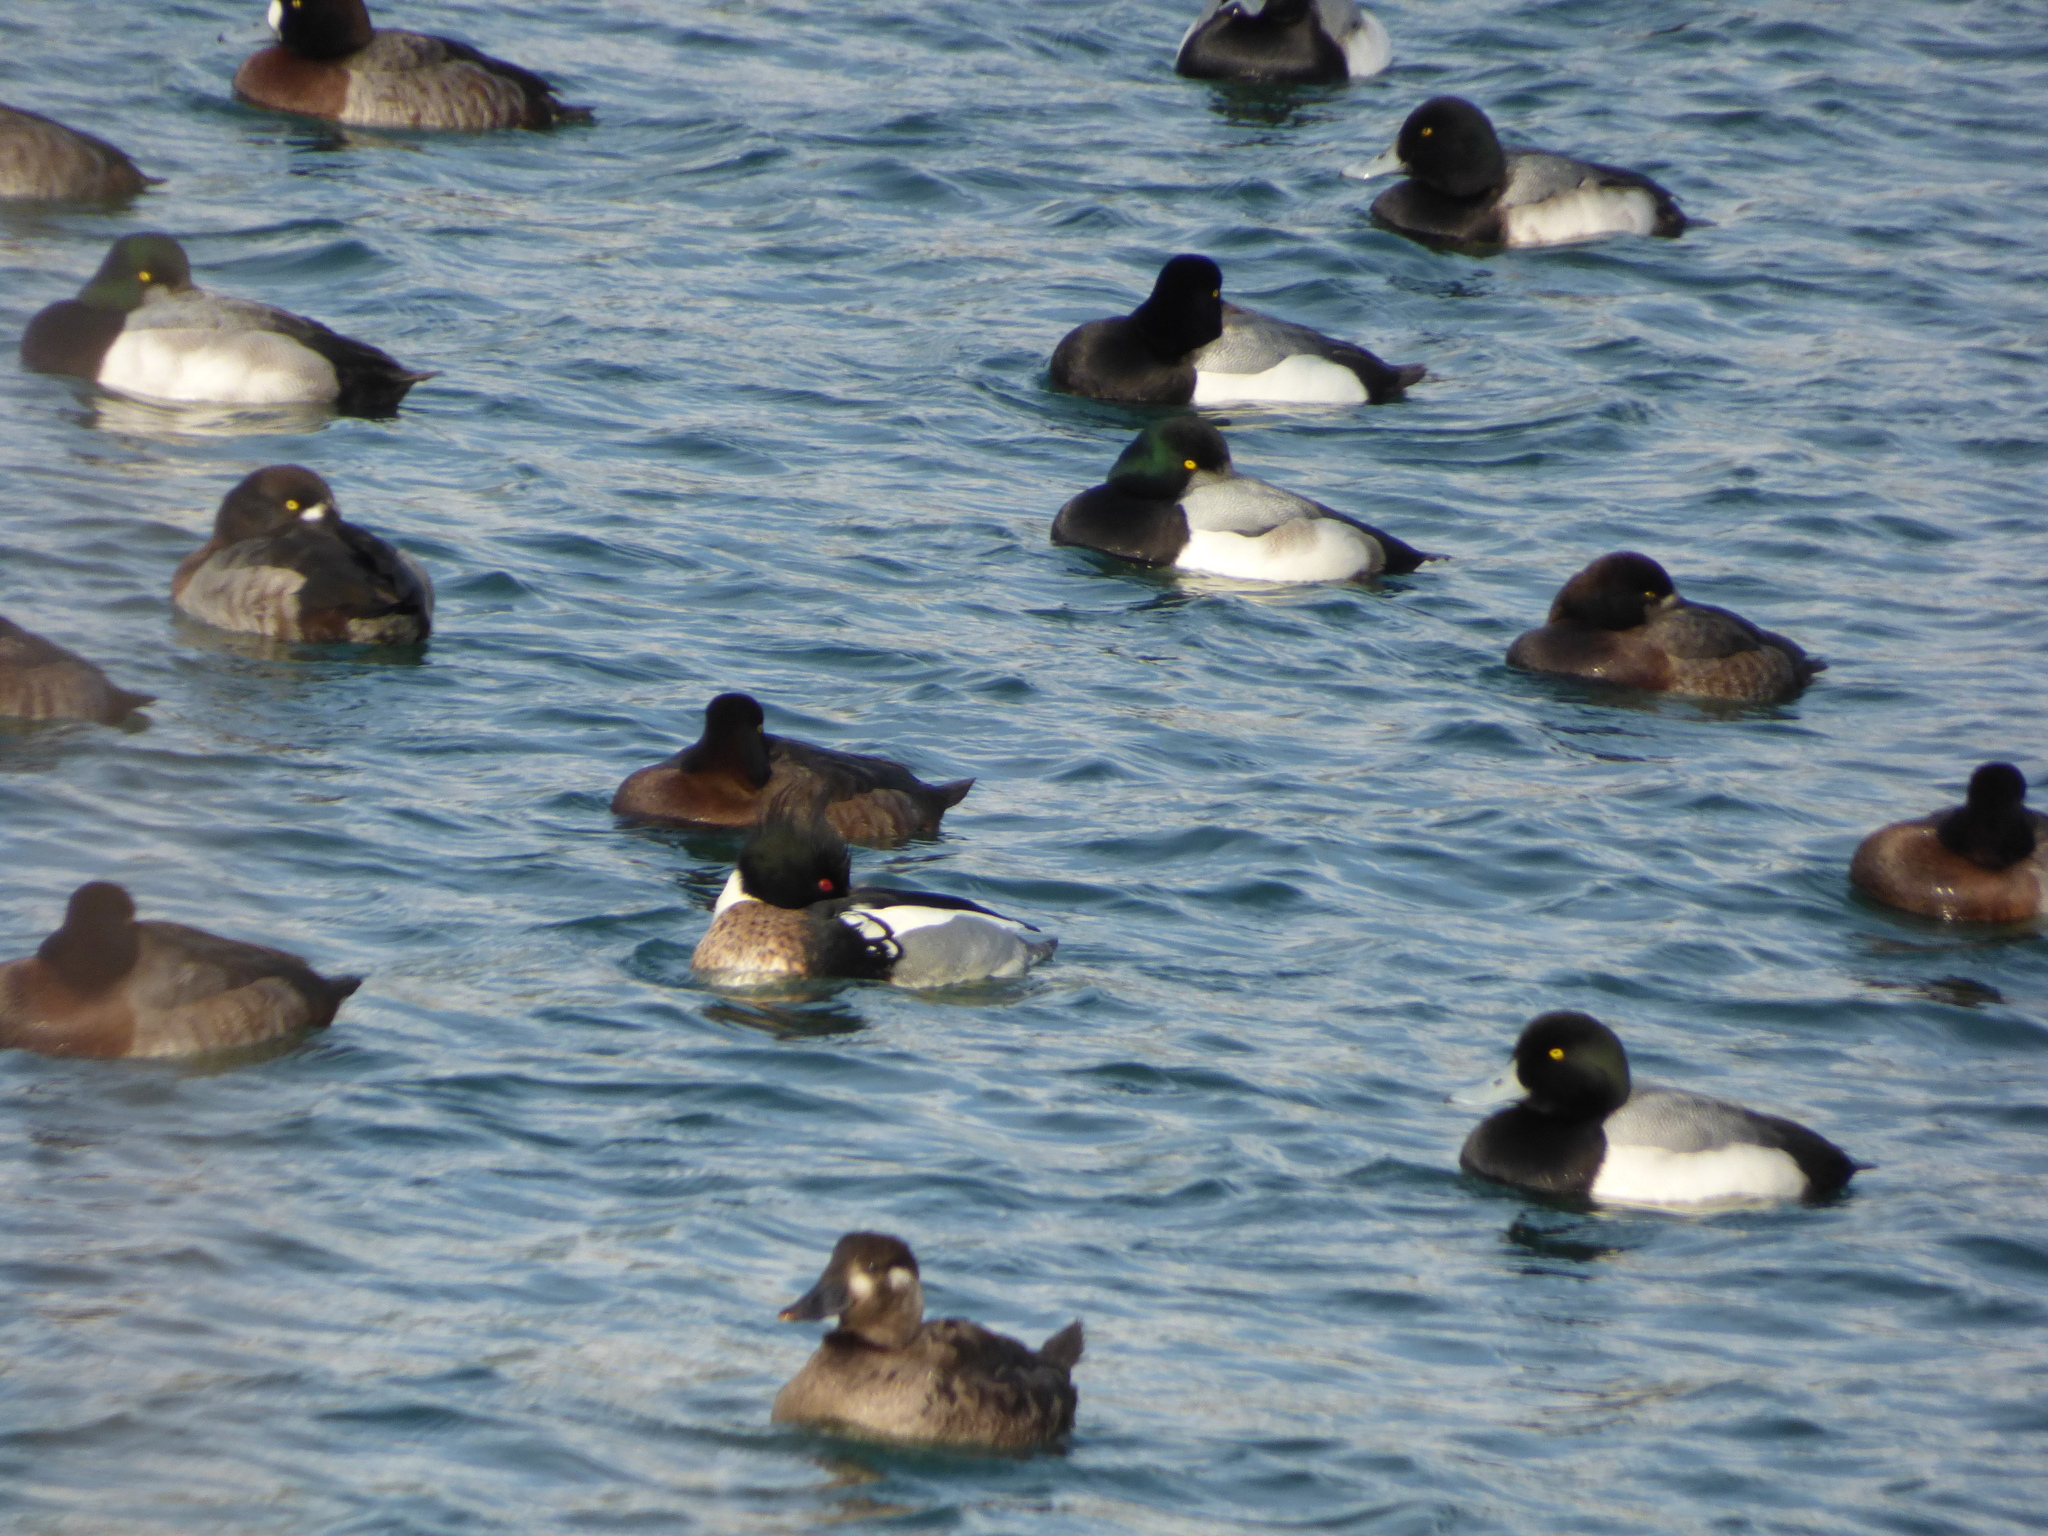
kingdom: Animalia
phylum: Chordata
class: Aves
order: Anseriformes
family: Anatidae
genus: Melanitta
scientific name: Melanitta perspicillata
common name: Surf scoter
